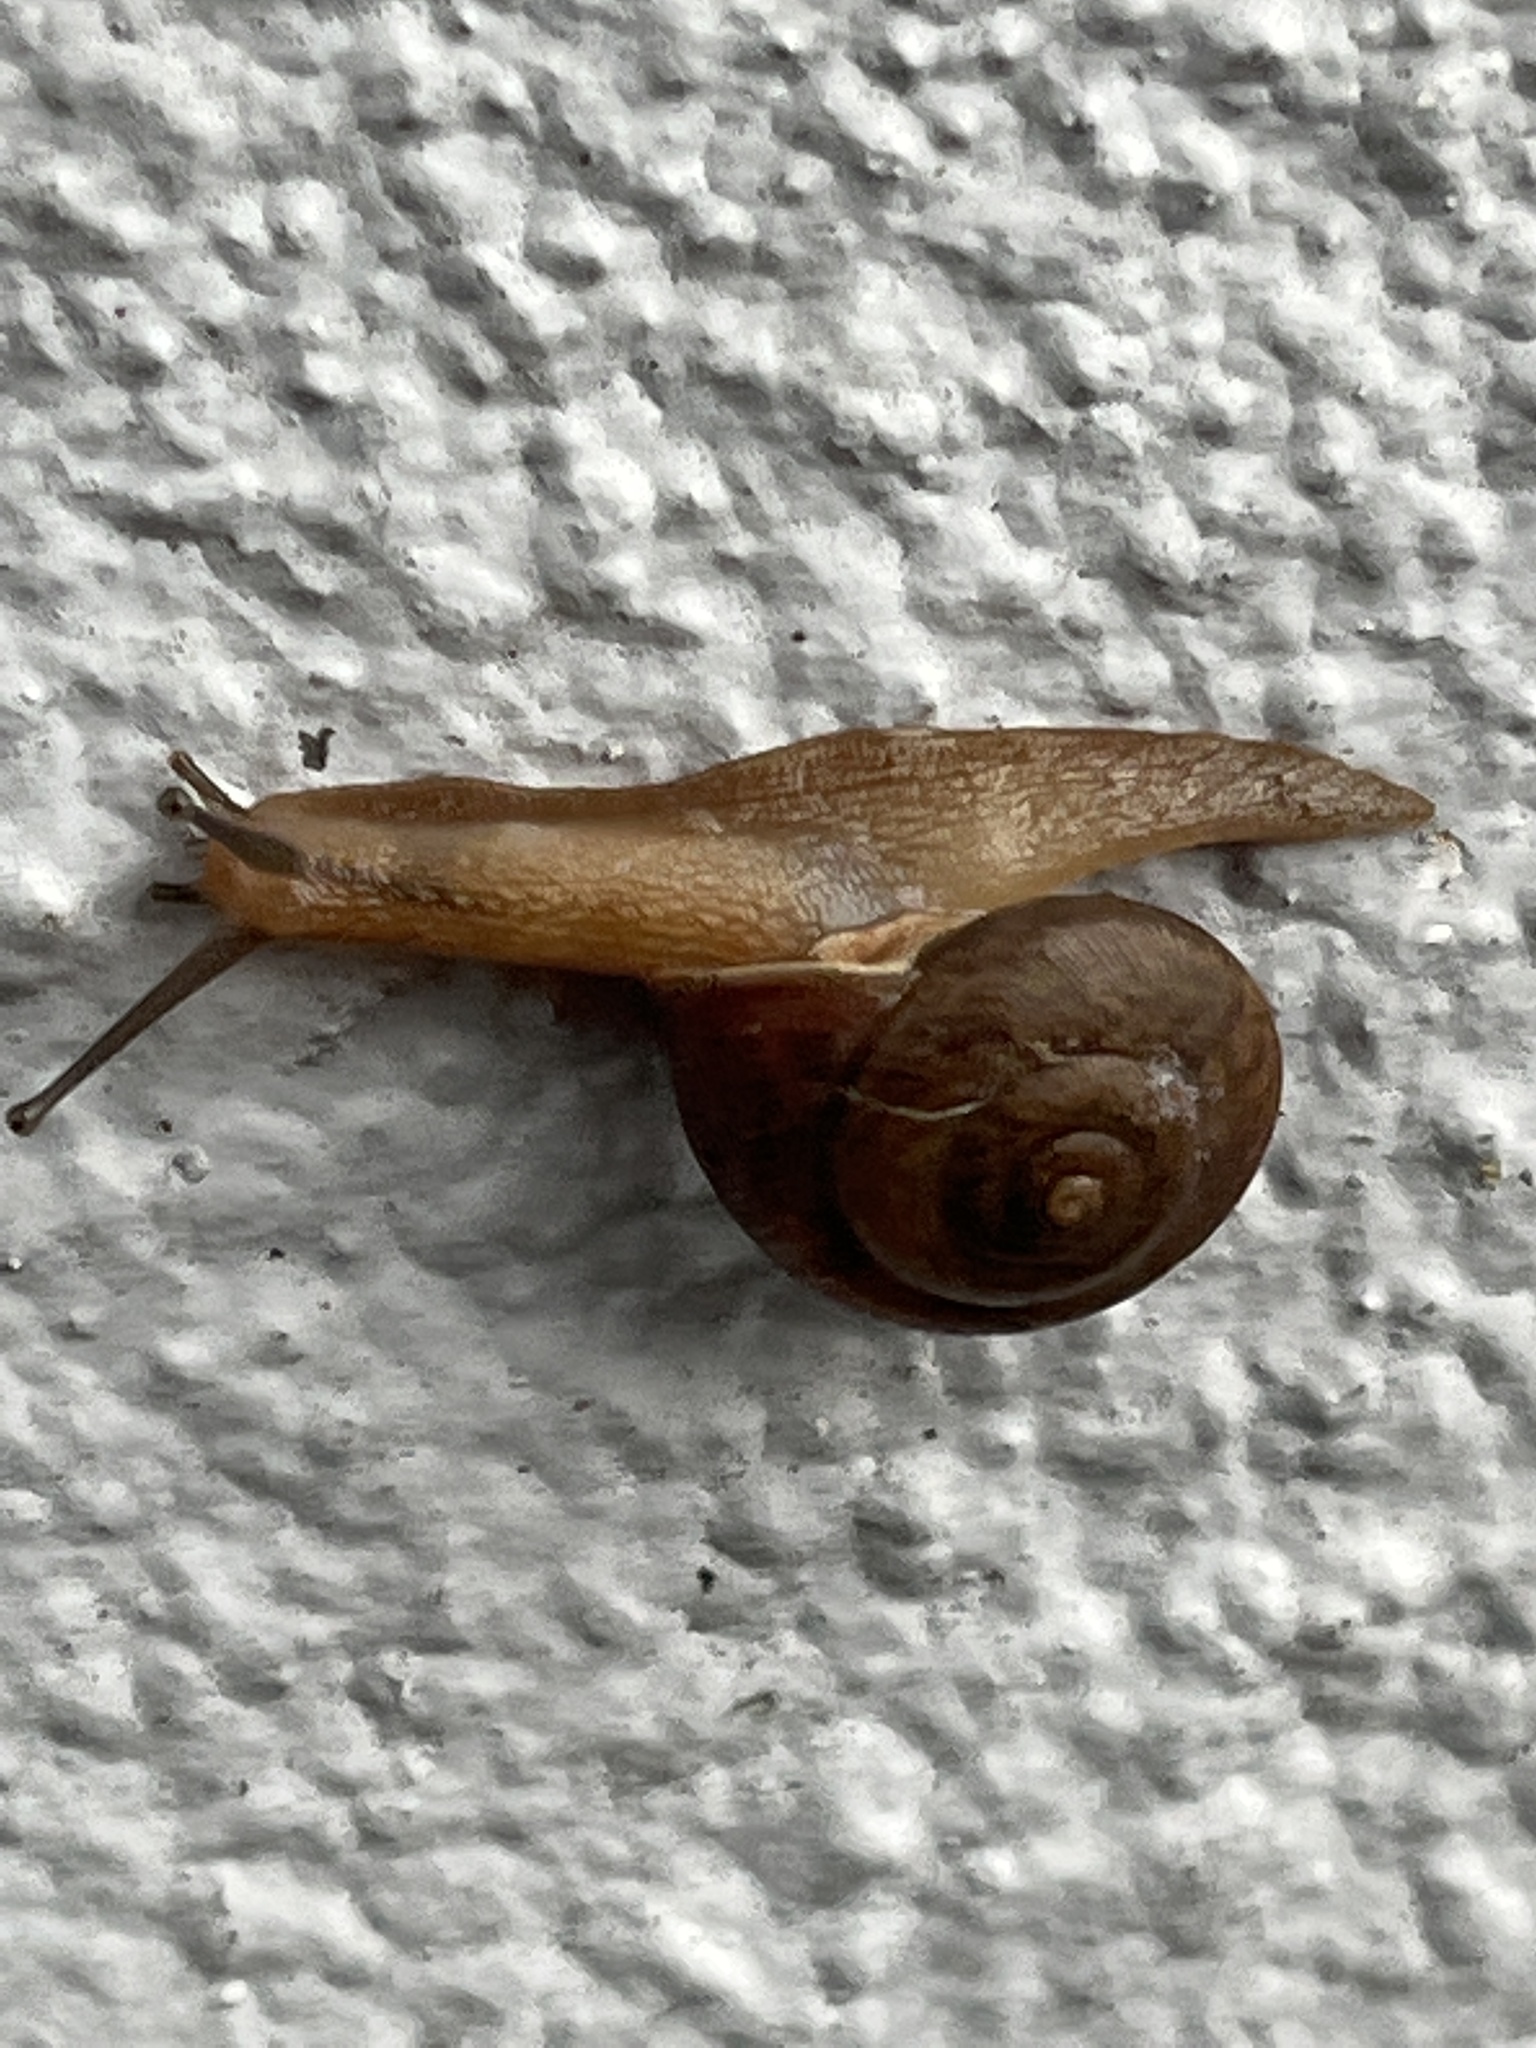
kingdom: Animalia
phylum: Mollusca
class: Gastropoda
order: Stylommatophora
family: Camaenidae
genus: Bradybaena
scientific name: Bradybaena similaris
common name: Asian trampsnail
